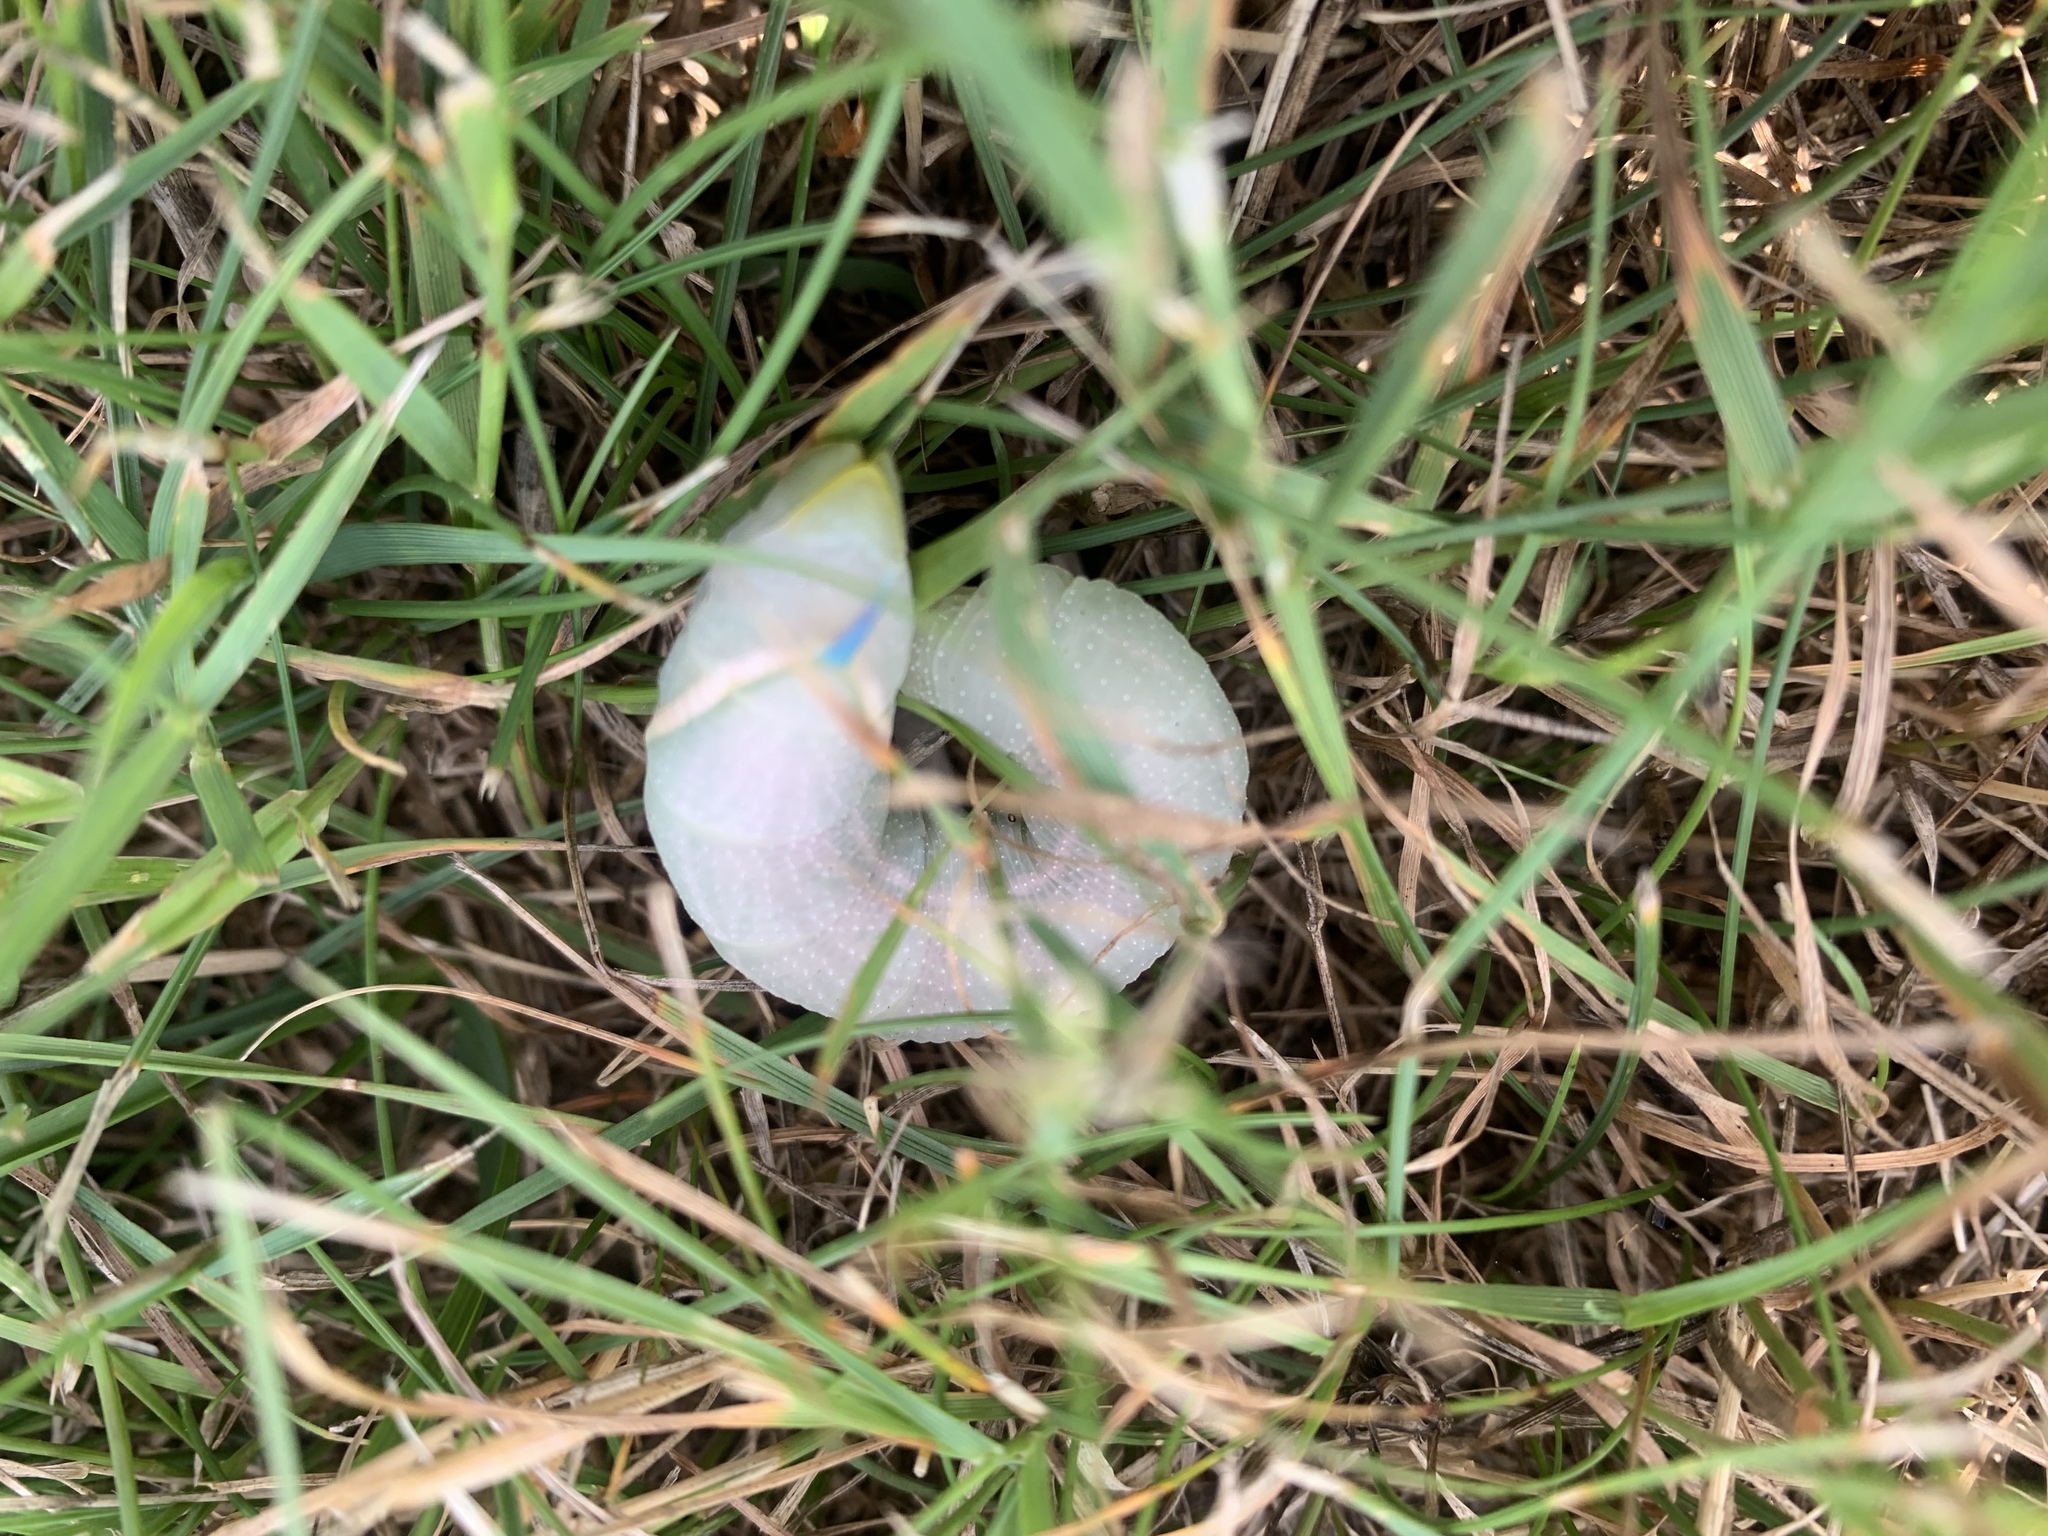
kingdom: Animalia
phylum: Arthropoda
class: Insecta
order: Lepidoptera
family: Sphingidae
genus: Smerinthus
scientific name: Smerinthus cerisyi
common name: Cerisy's sphinx moth
